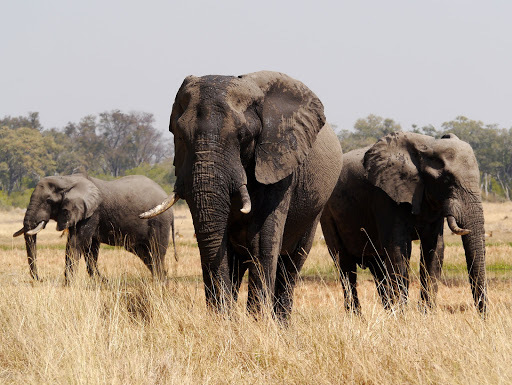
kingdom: Animalia
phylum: Chordata
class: Mammalia
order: Proboscidea
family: Elephantidae
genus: Loxodonta
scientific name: Loxodonta africana
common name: African elephant
